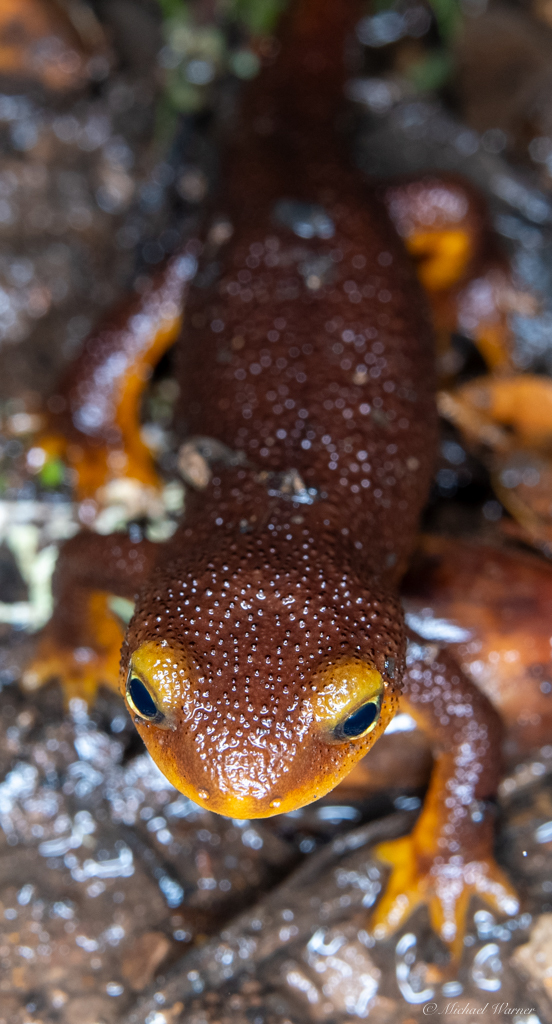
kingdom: Animalia
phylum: Chordata
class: Amphibia
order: Caudata
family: Salamandridae
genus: Taricha
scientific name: Taricha torosa
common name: California newt
